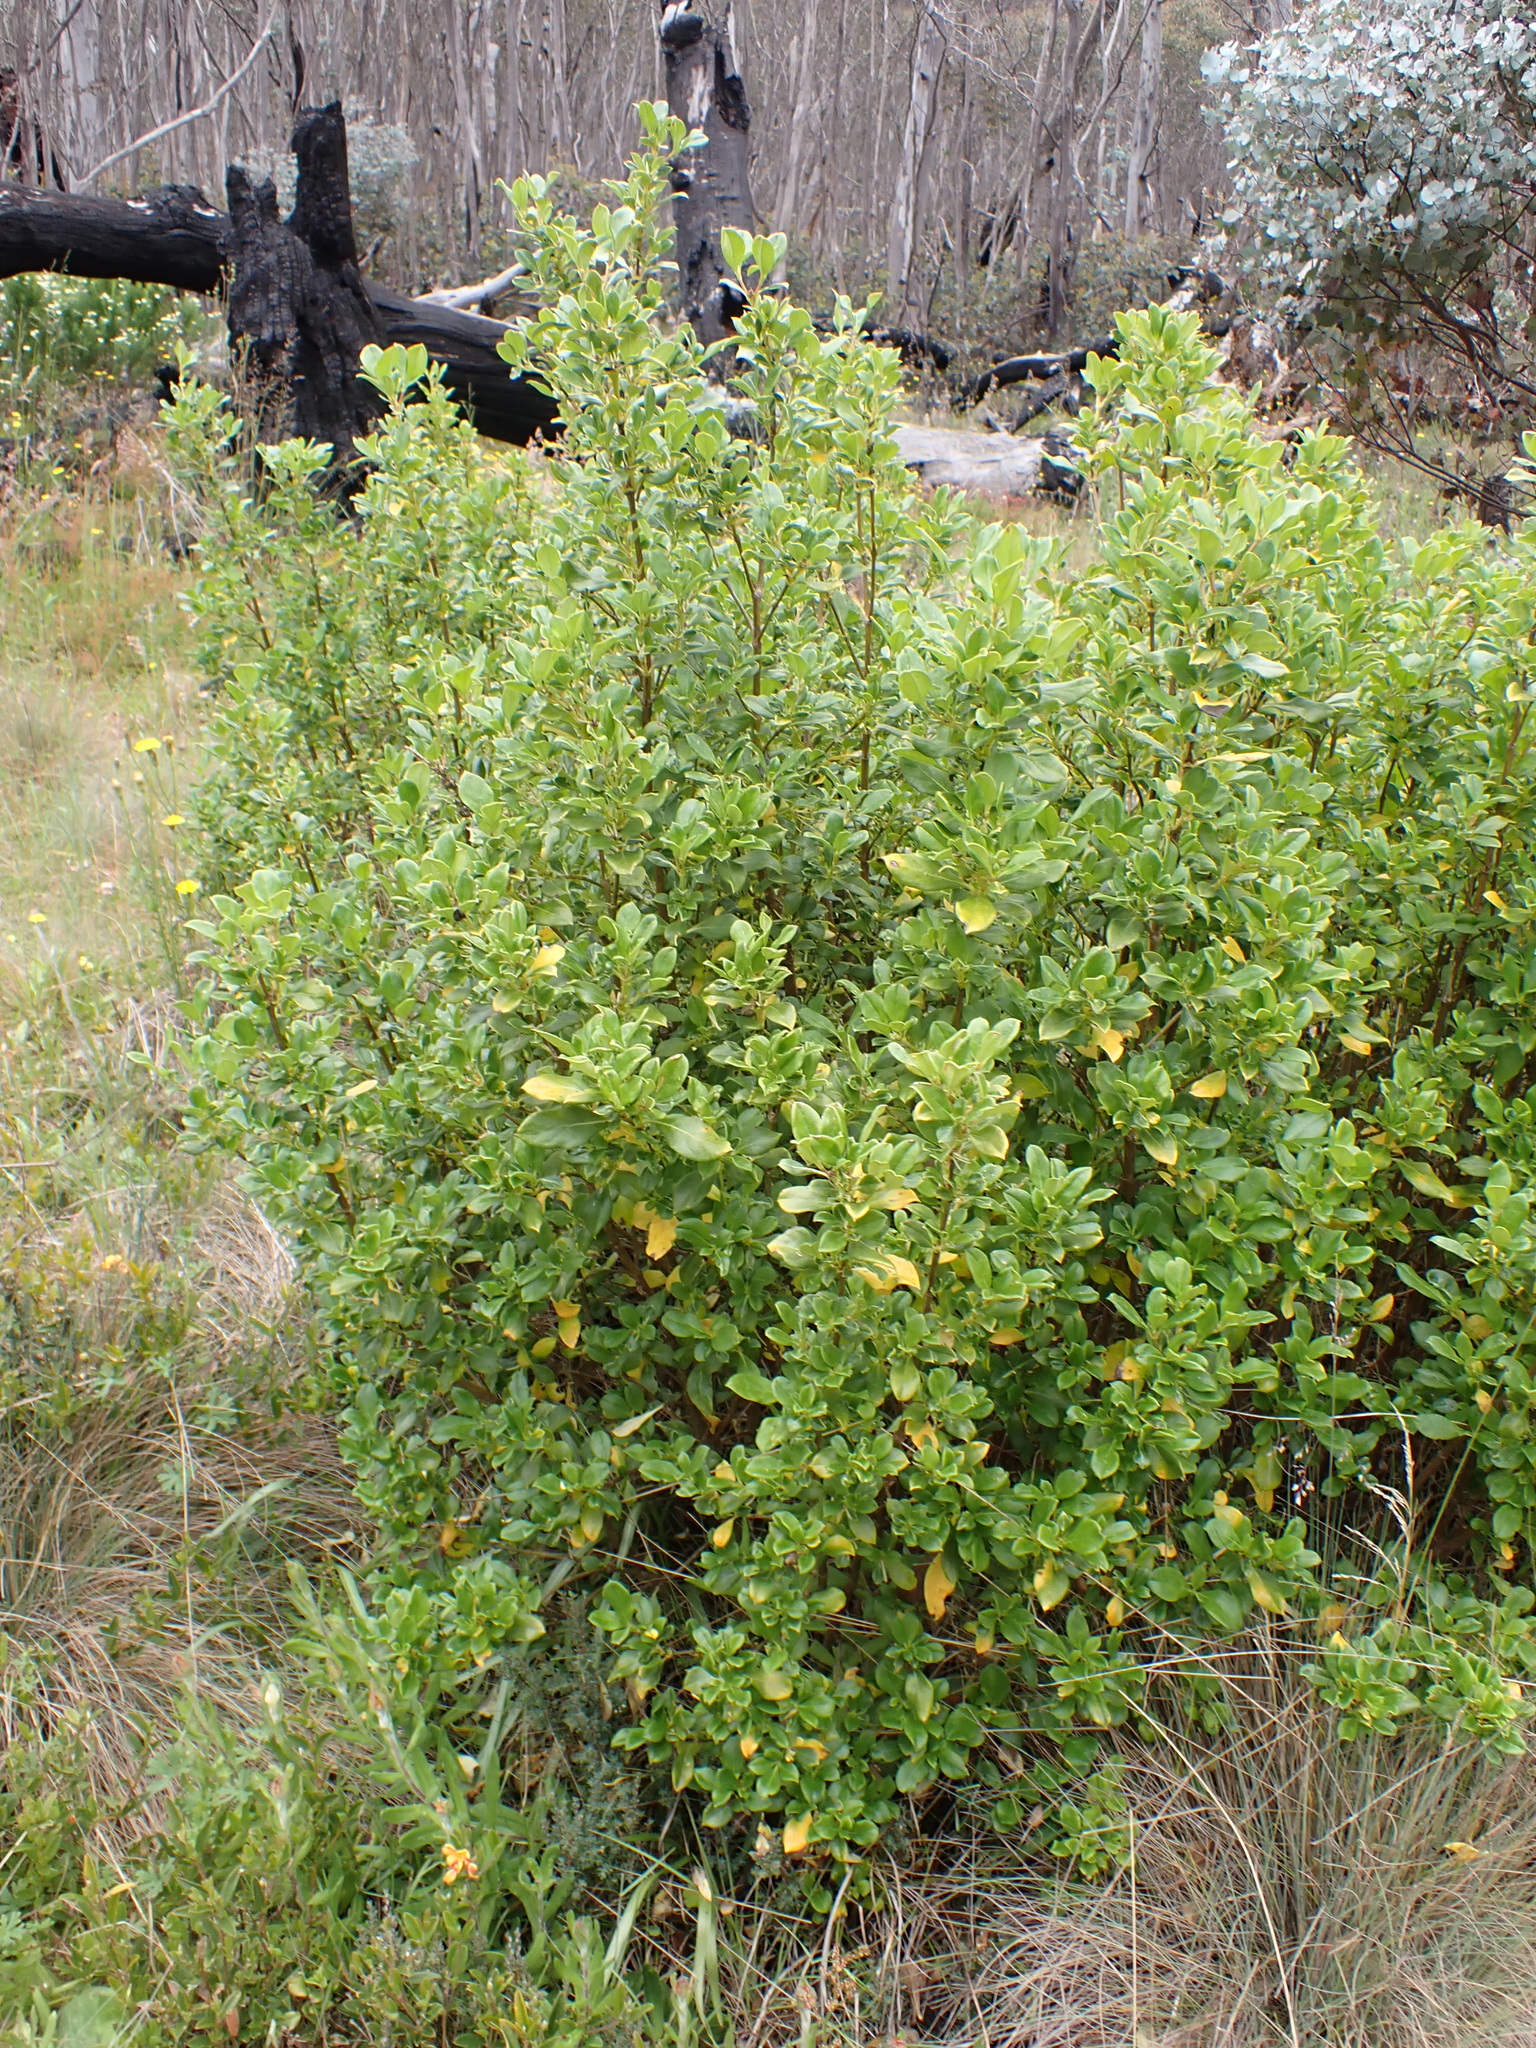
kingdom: Plantae
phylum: Tracheophyta
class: Magnoliopsida
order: Gentianales
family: Rubiaceae
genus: Coprosma
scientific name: Coprosma hirtella
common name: Rough coprosma
